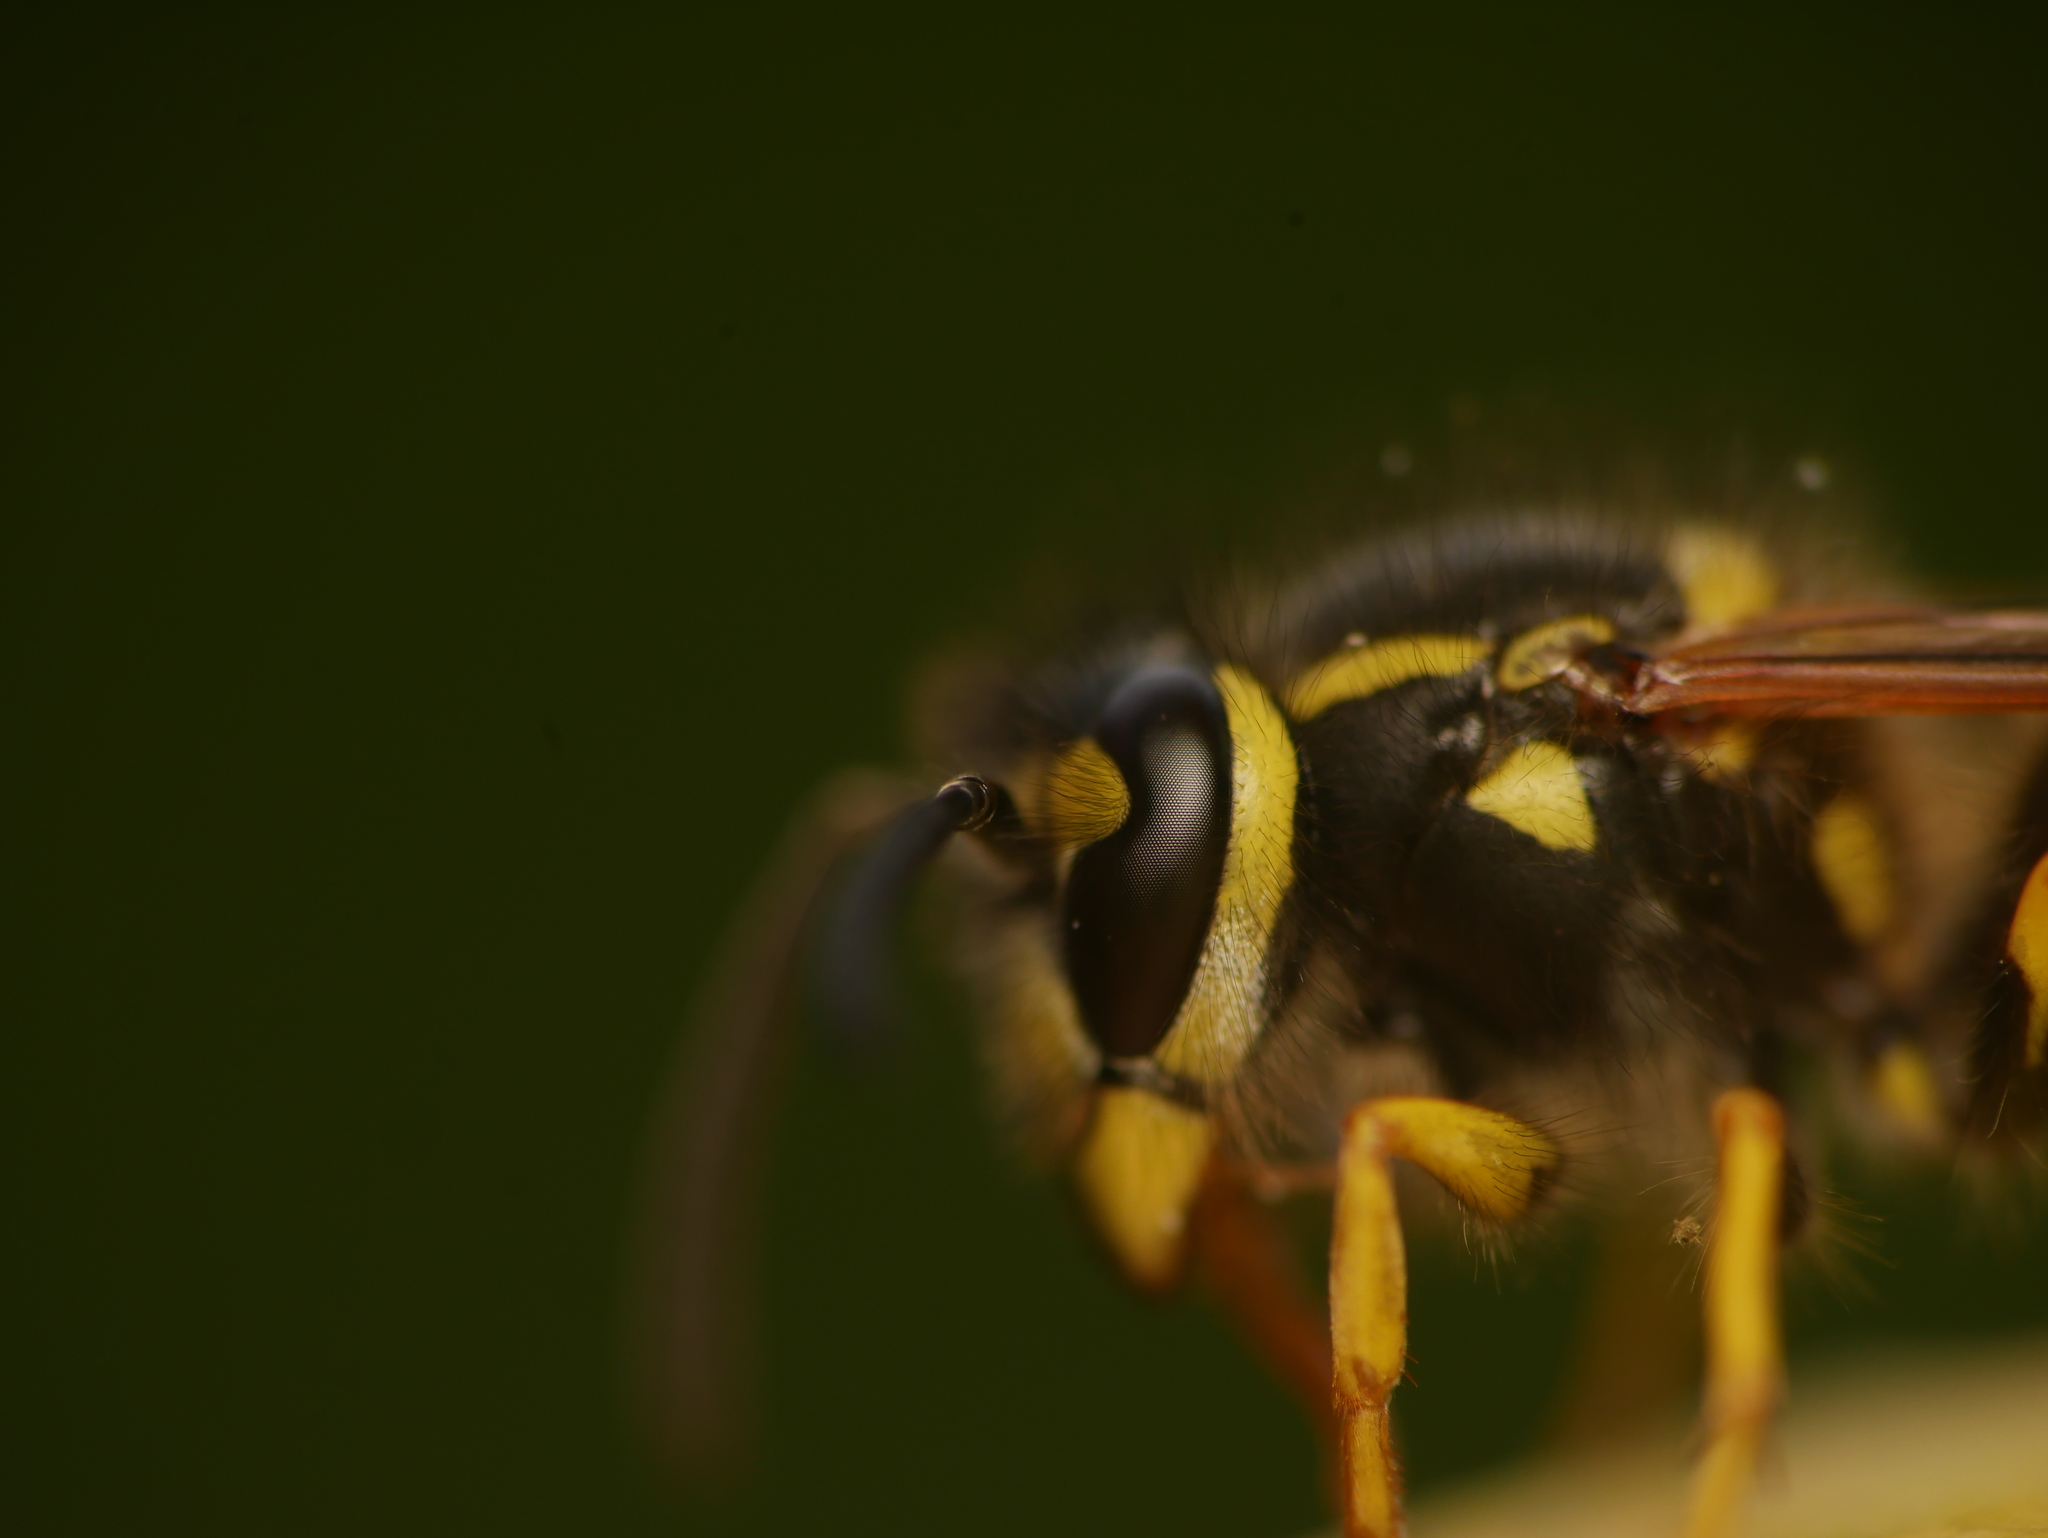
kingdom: Animalia
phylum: Arthropoda
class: Insecta
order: Hymenoptera
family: Vespidae
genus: Vespula
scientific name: Vespula germanica
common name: German wasp
